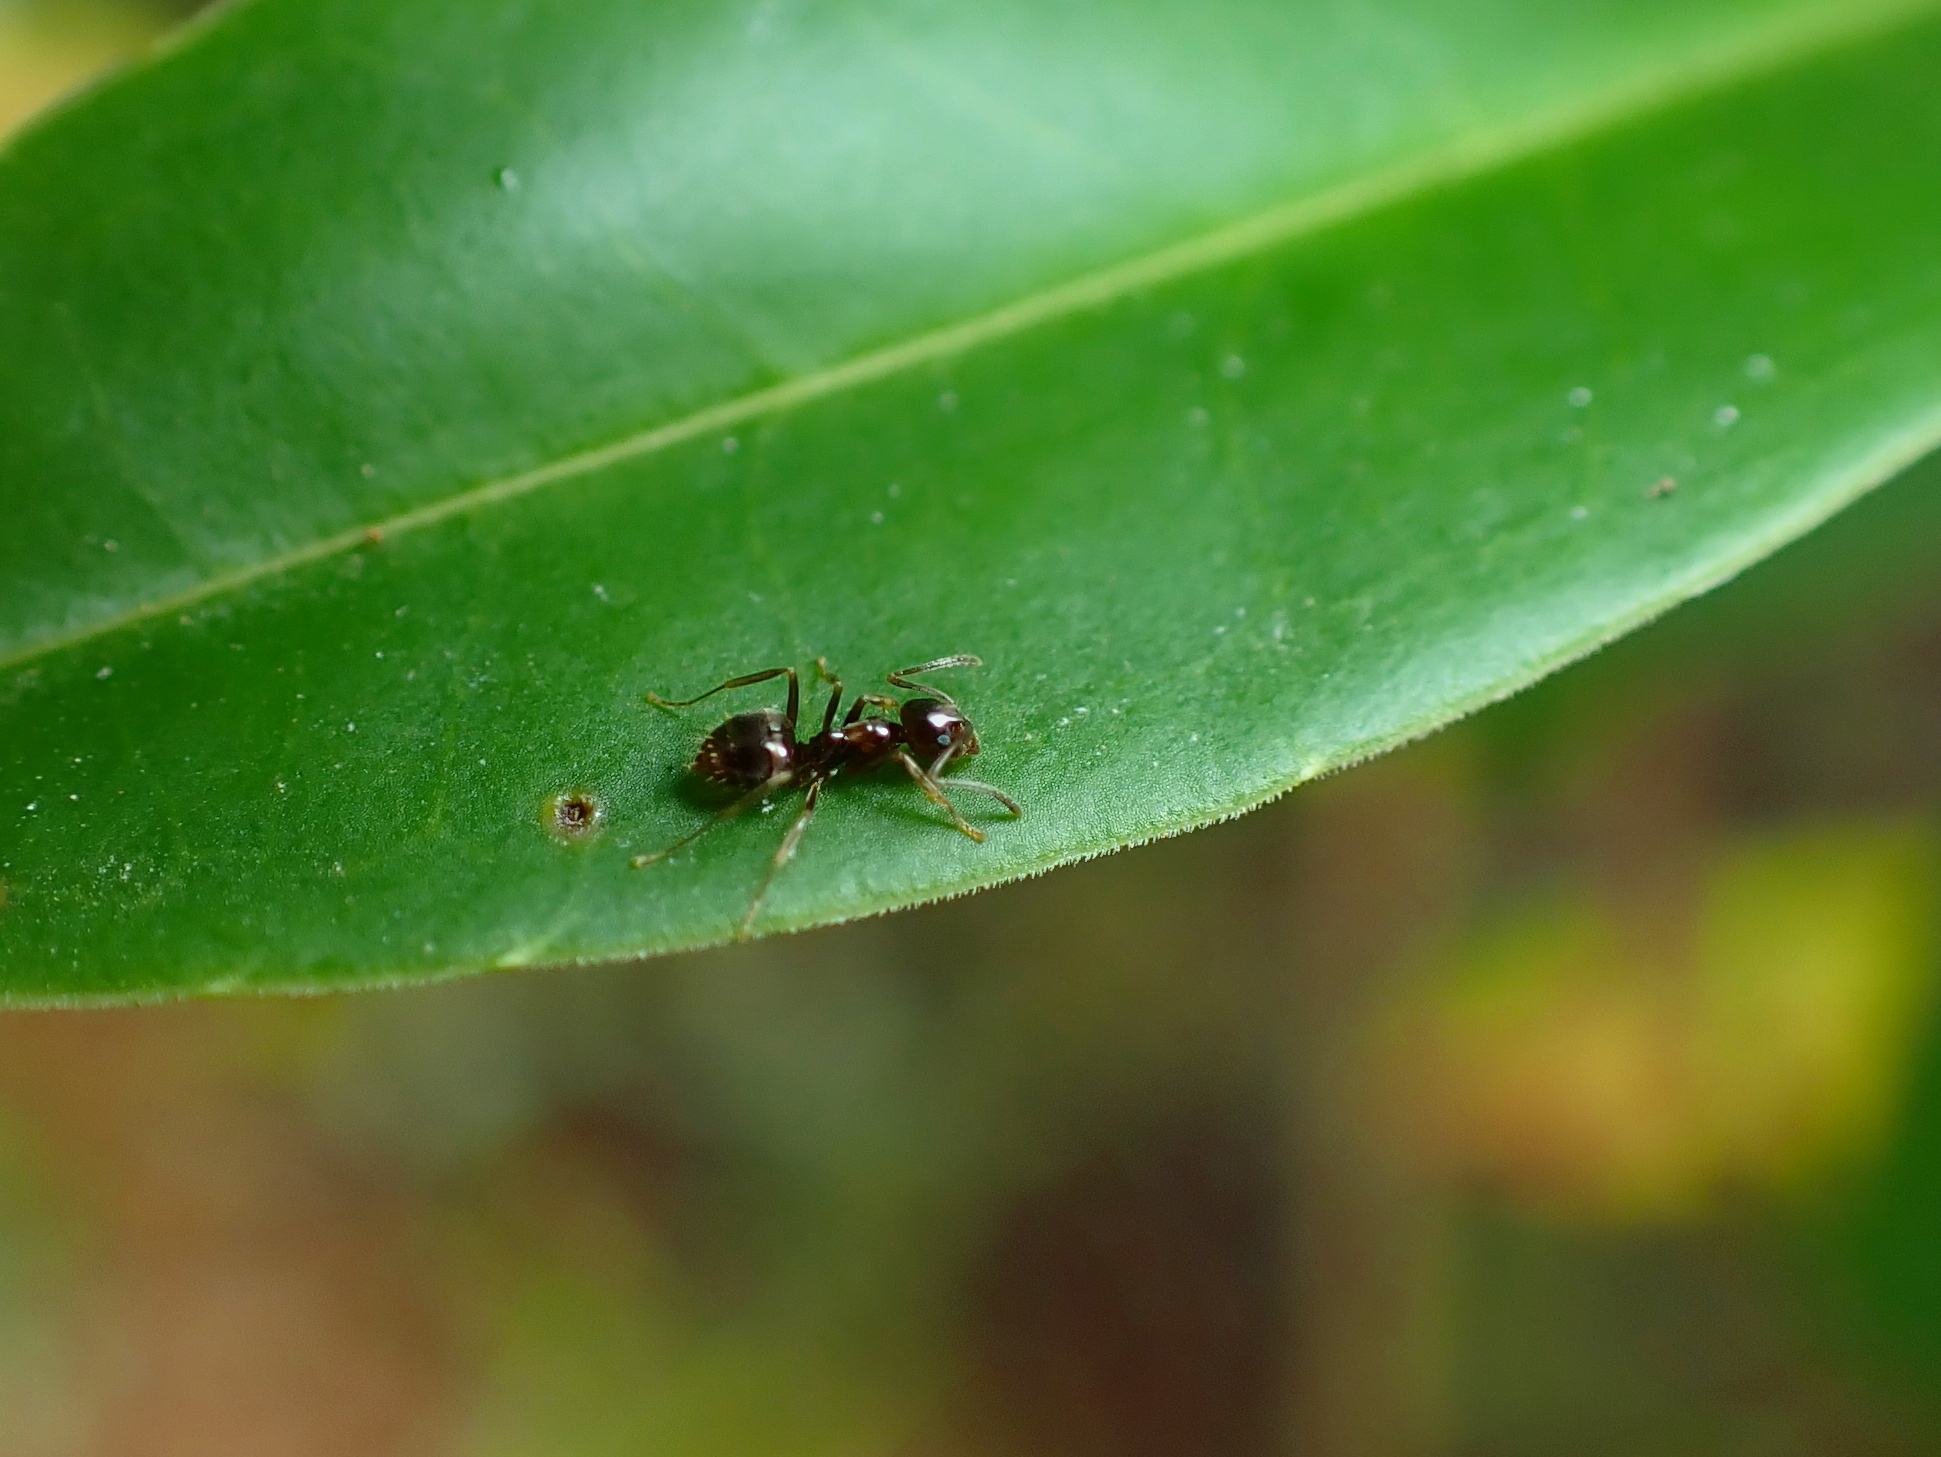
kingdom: Animalia
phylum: Arthropoda
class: Insecta
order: Hymenoptera
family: Formicidae
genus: Prolasius
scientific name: Prolasius advenus
